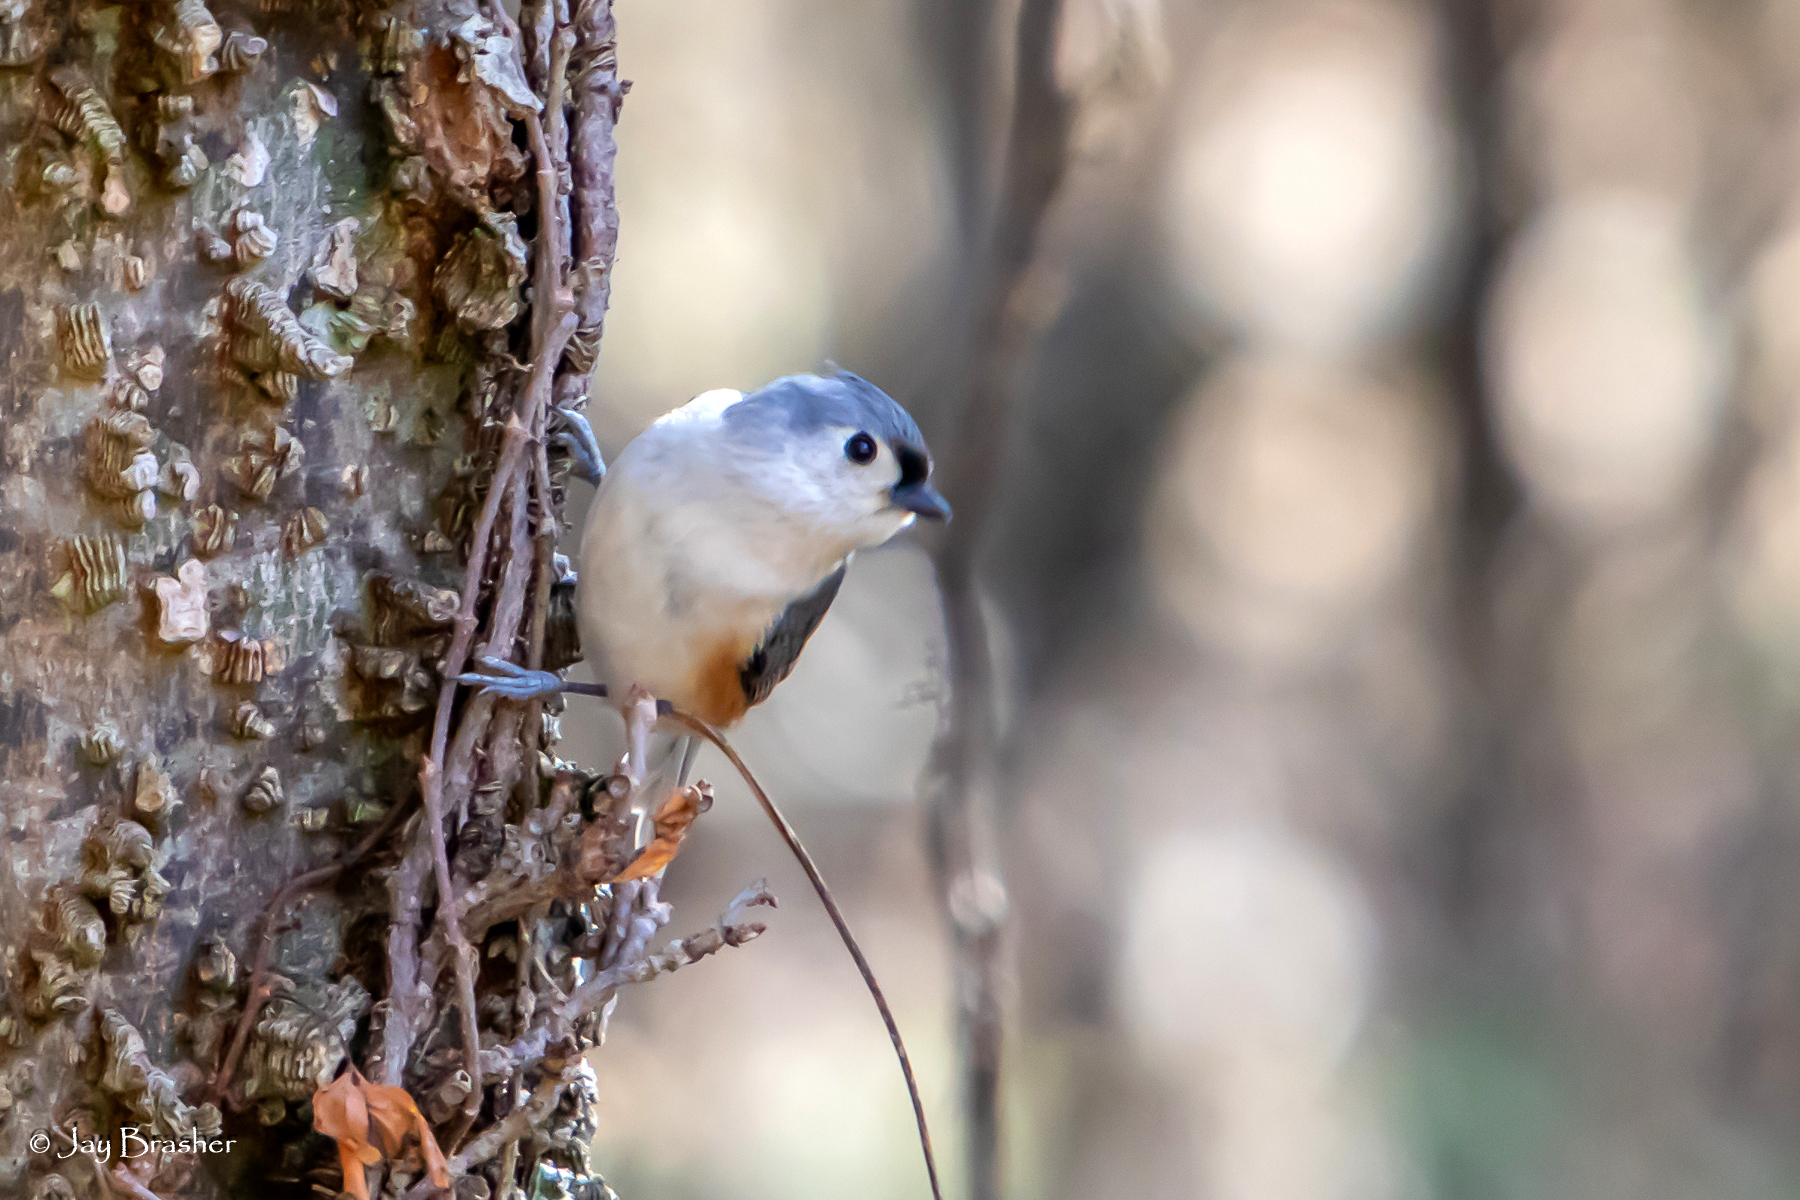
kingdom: Animalia
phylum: Chordata
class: Aves
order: Passeriformes
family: Paridae
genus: Baeolophus
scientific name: Baeolophus bicolor
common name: Tufted titmouse
